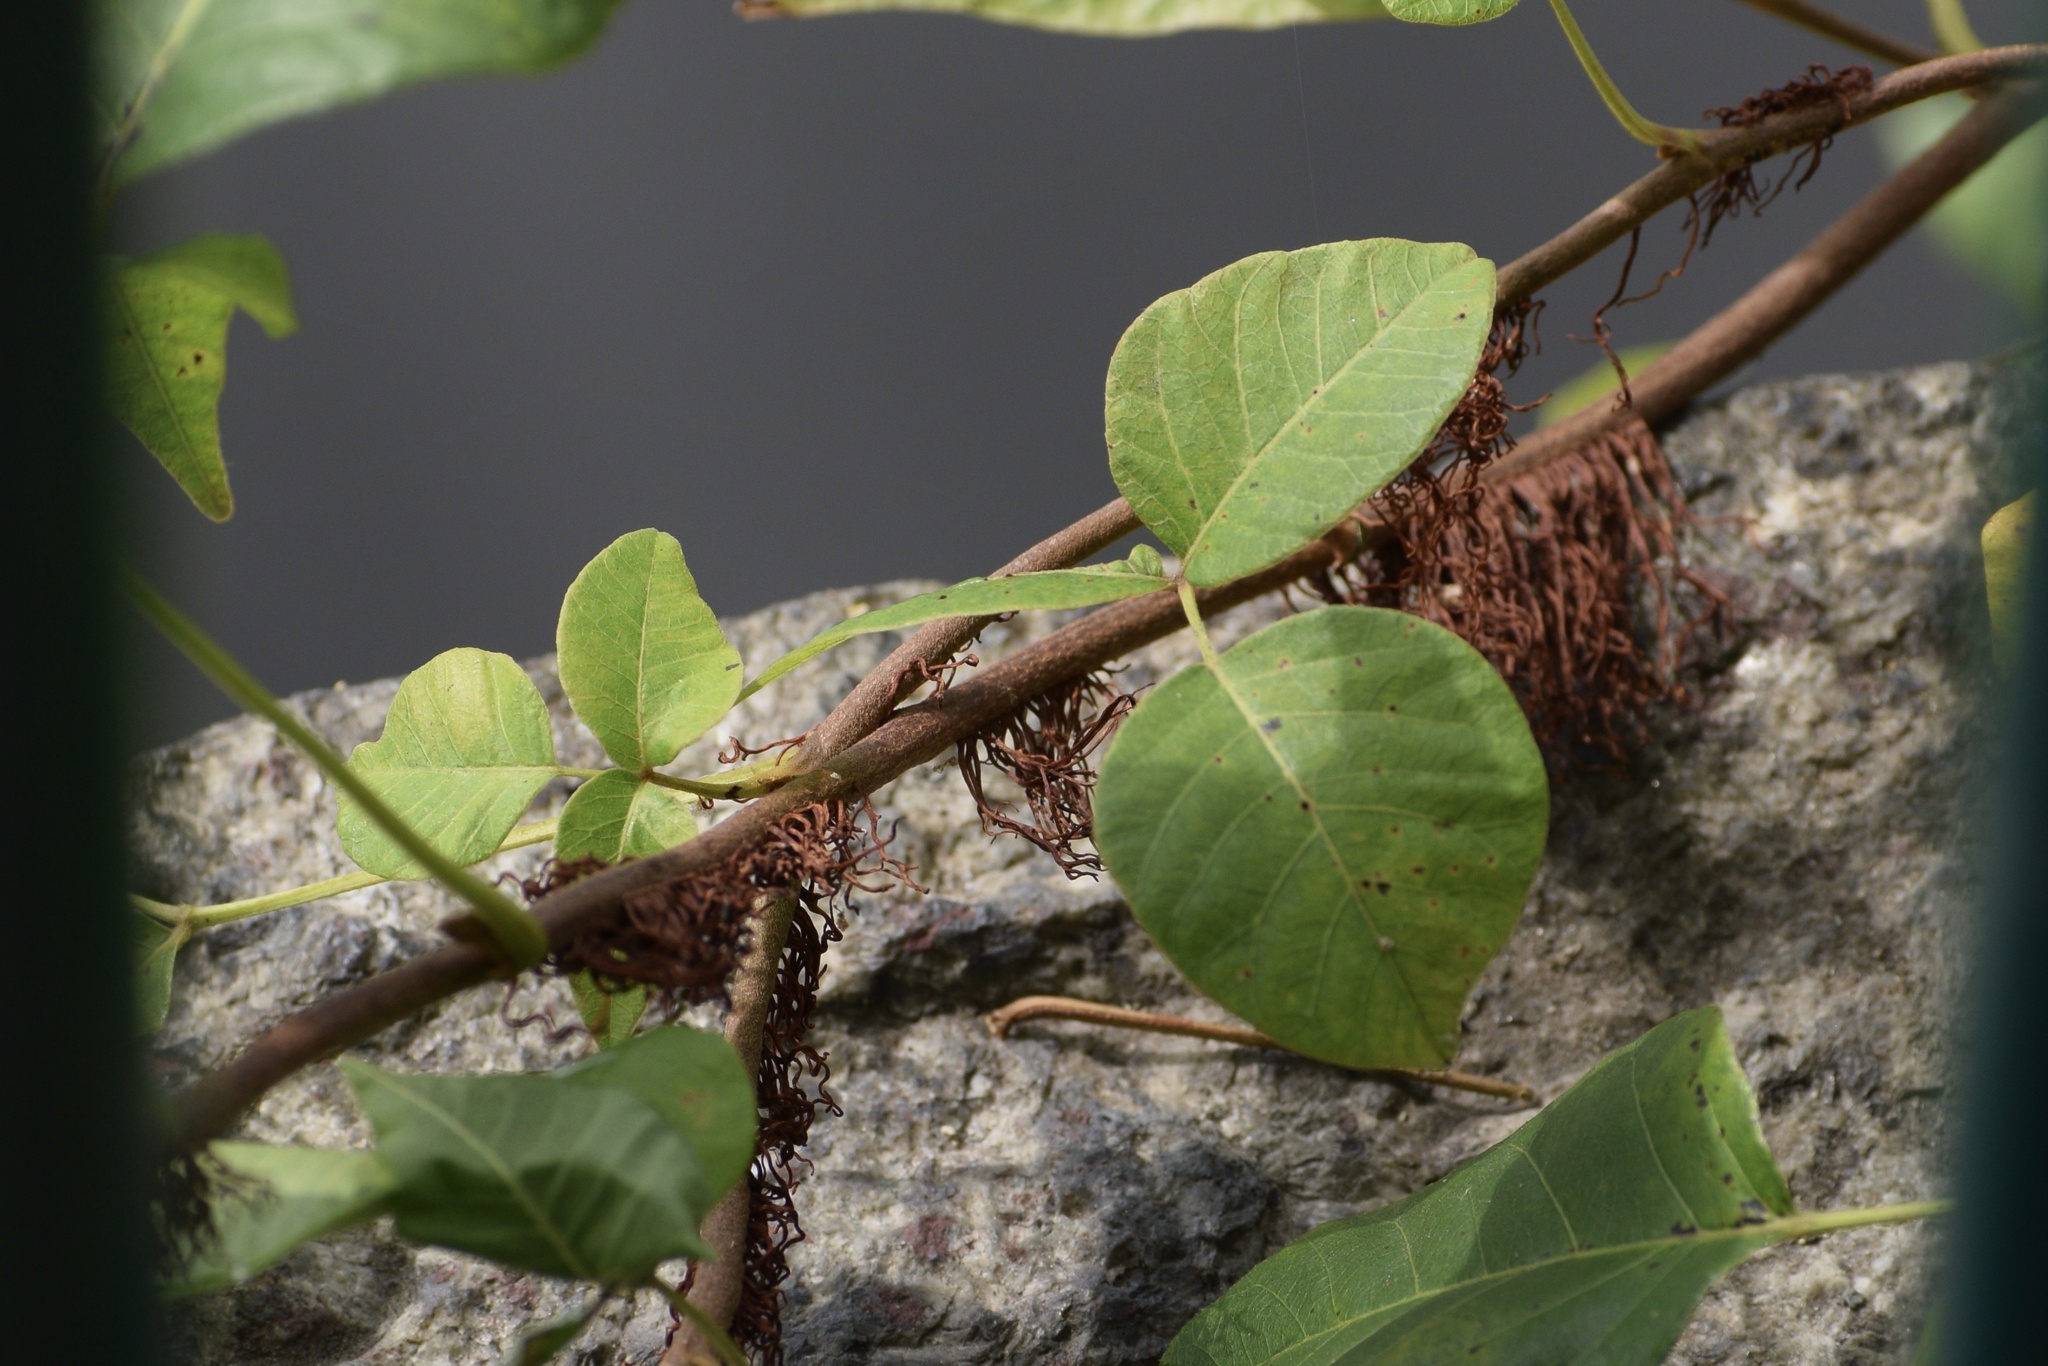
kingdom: Plantae
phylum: Tracheophyta
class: Magnoliopsida
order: Sapindales
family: Anacardiaceae
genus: Toxicodendron
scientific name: Toxicodendron radicans
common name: Poison ivy
